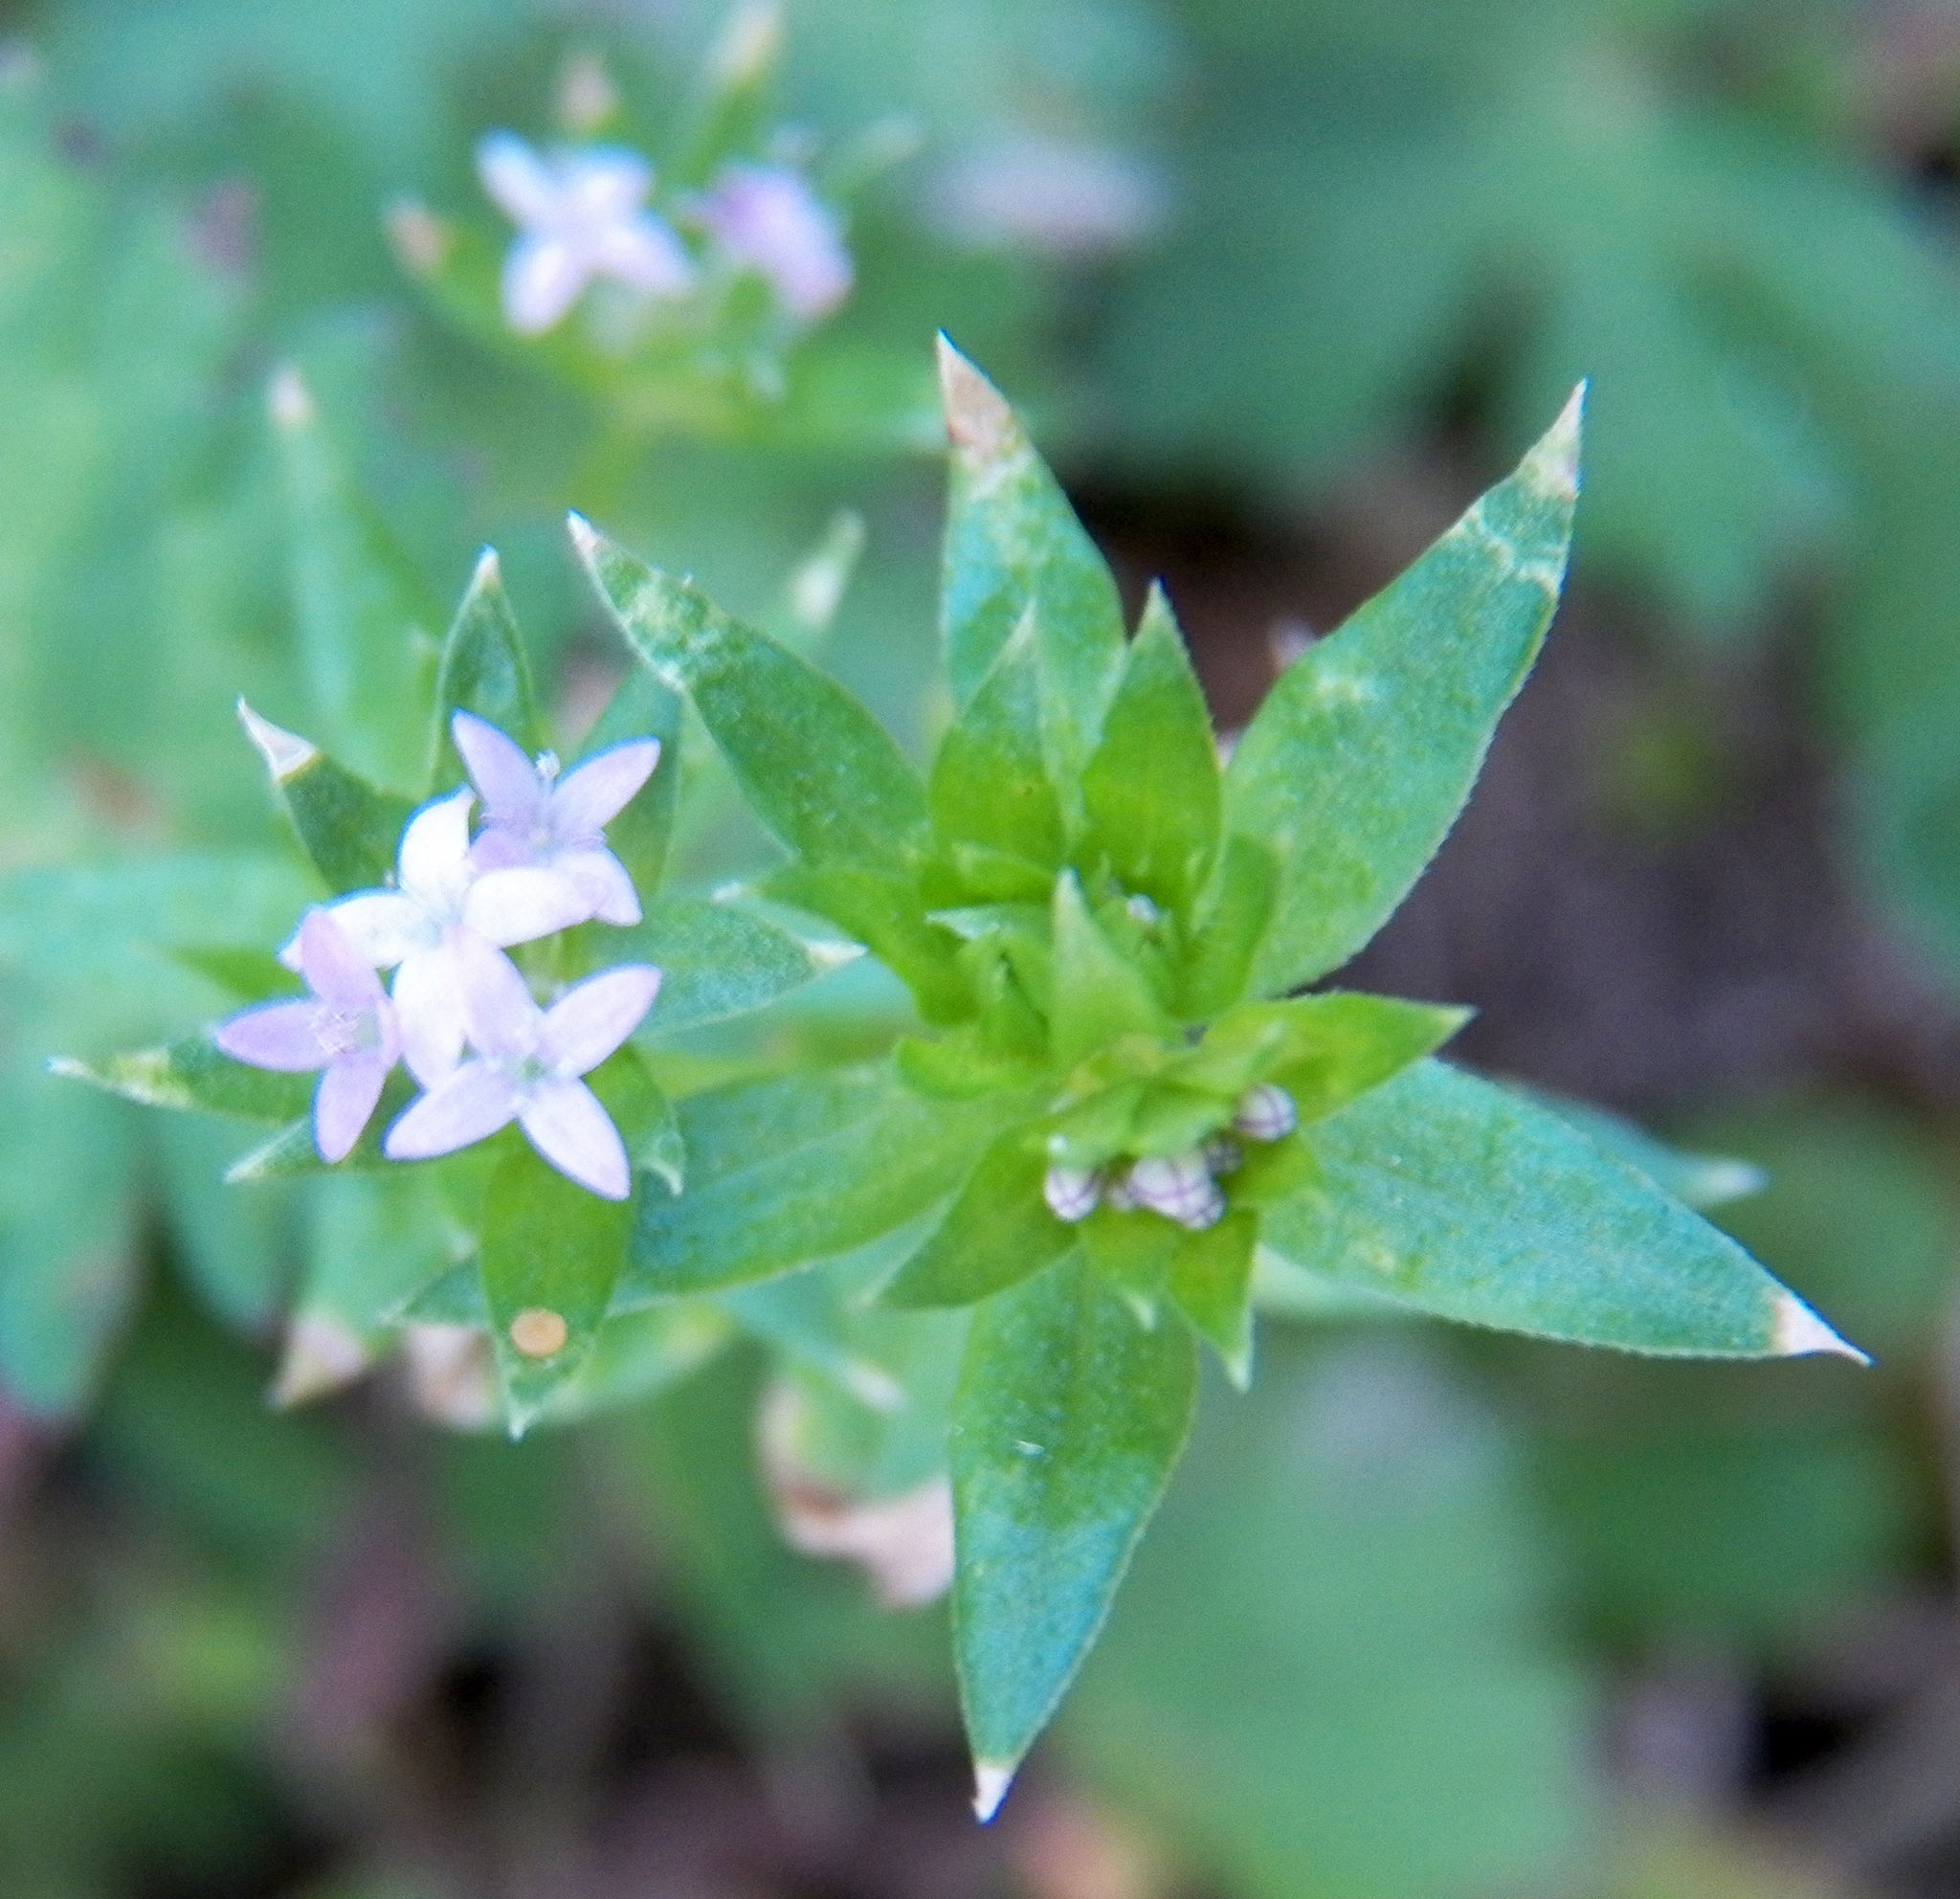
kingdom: Plantae
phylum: Tracheophyta
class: Magnoliopsida
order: Gentianales
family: Rubiaceae
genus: Sherardia
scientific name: Sherardia arvensis
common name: Field madder
